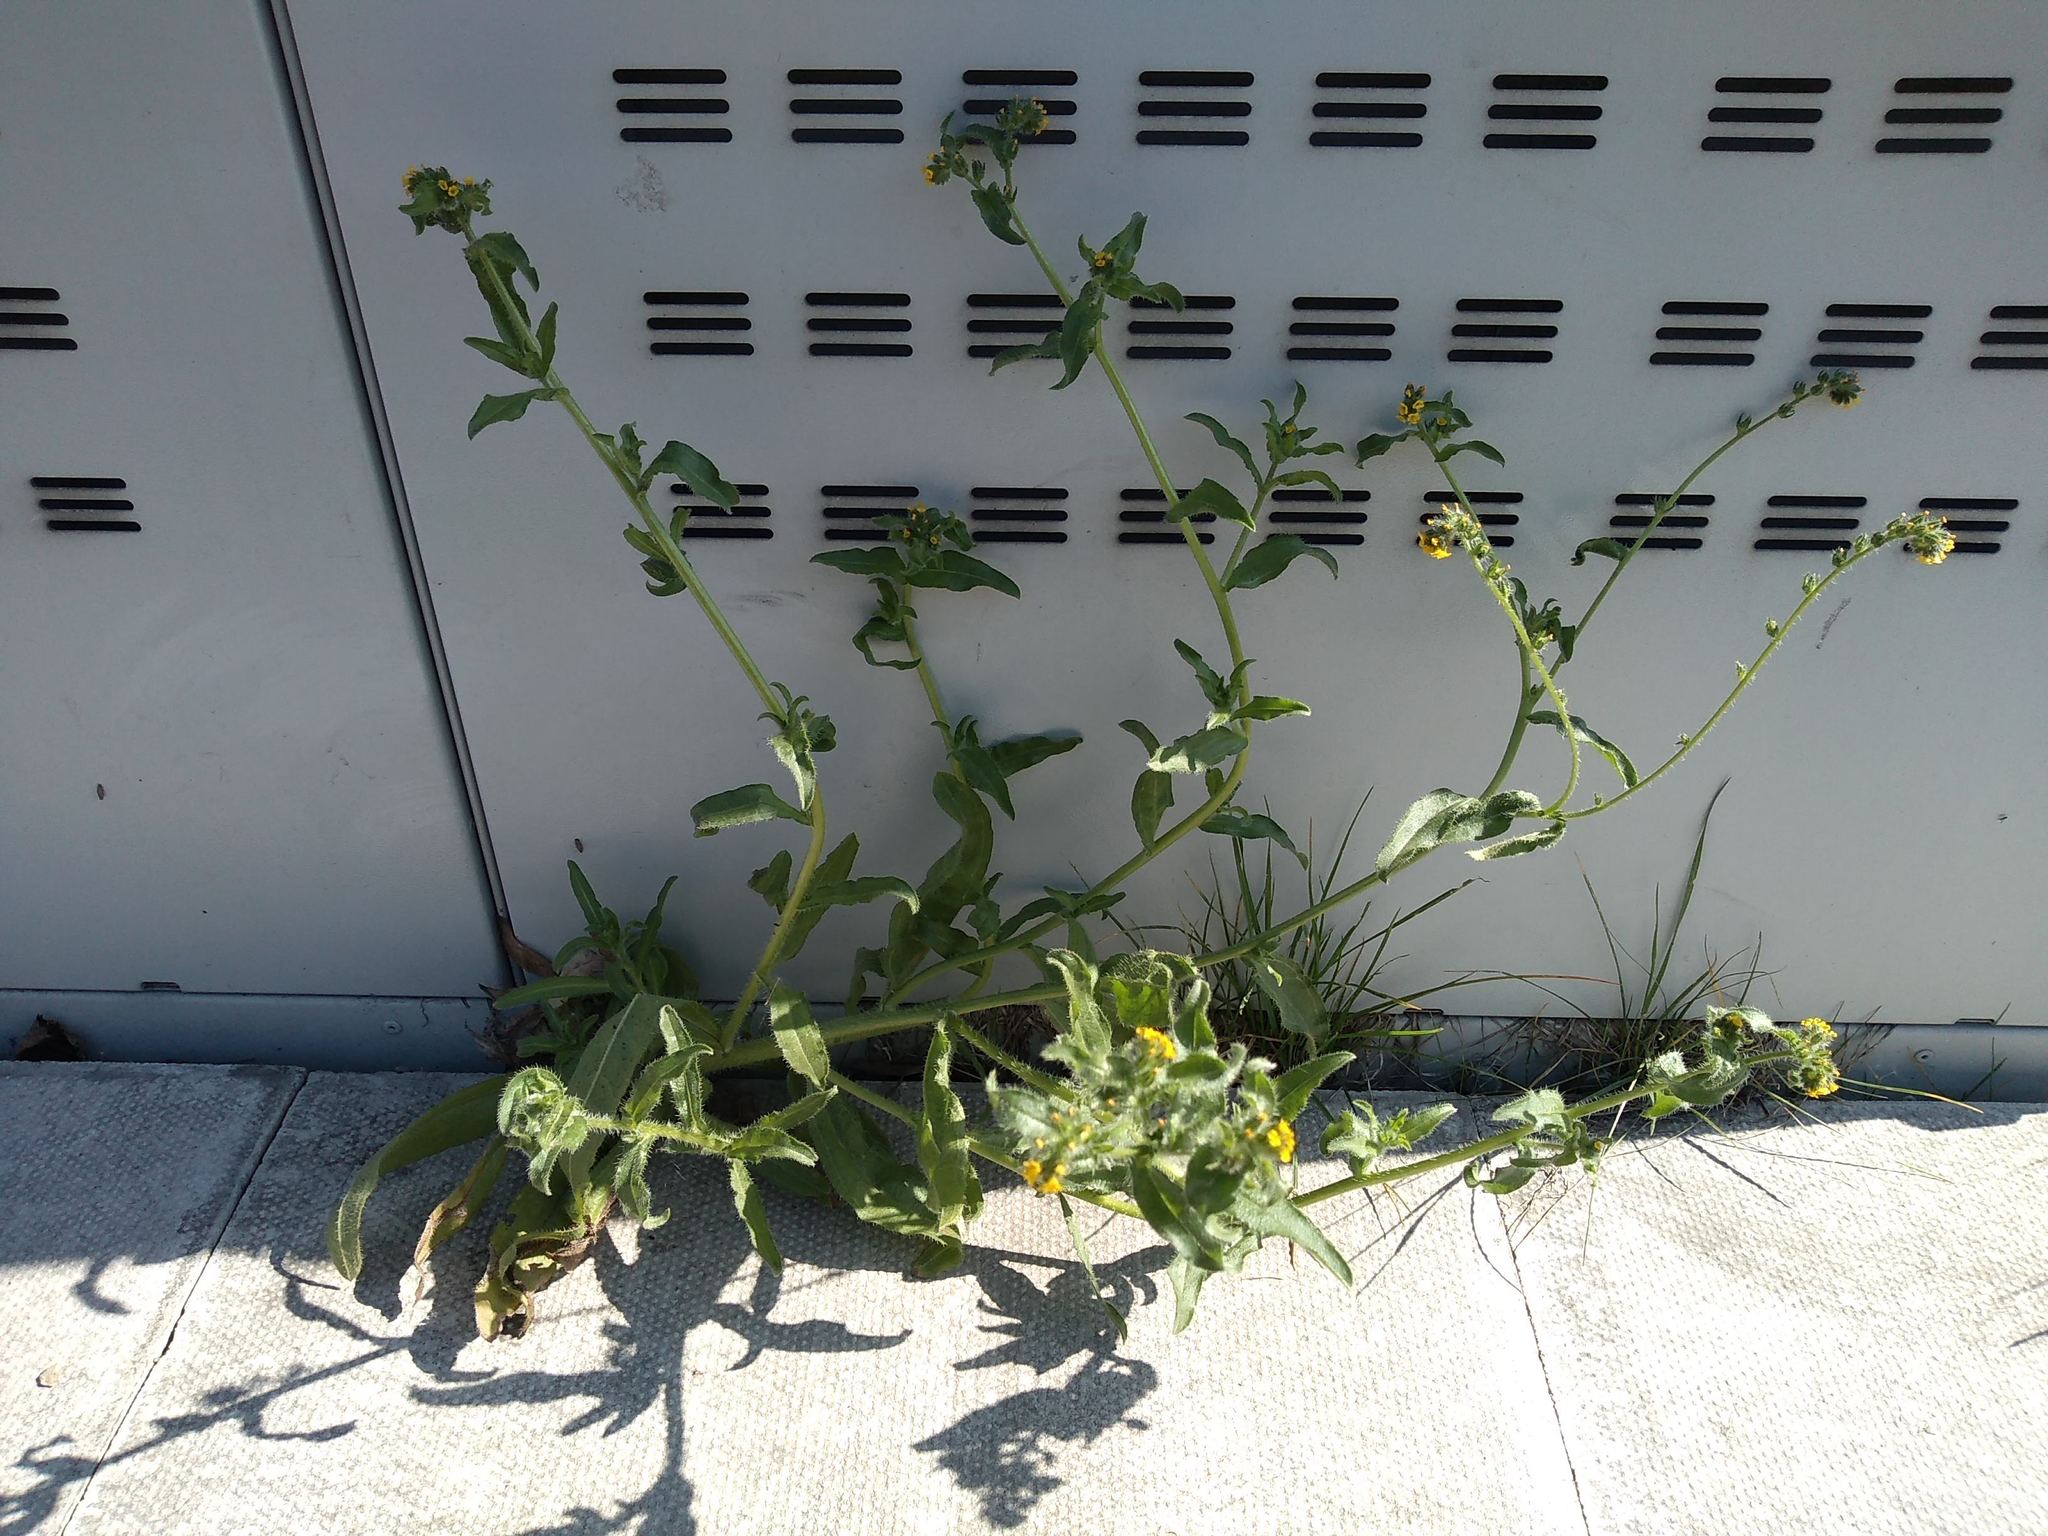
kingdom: Plantae
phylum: Tracheophyta
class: Magnoliopsida
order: Boraginales
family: Boraginaceae
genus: Amsinckia
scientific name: Amsinckia menziesii
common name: Menzies' fiddleneck
